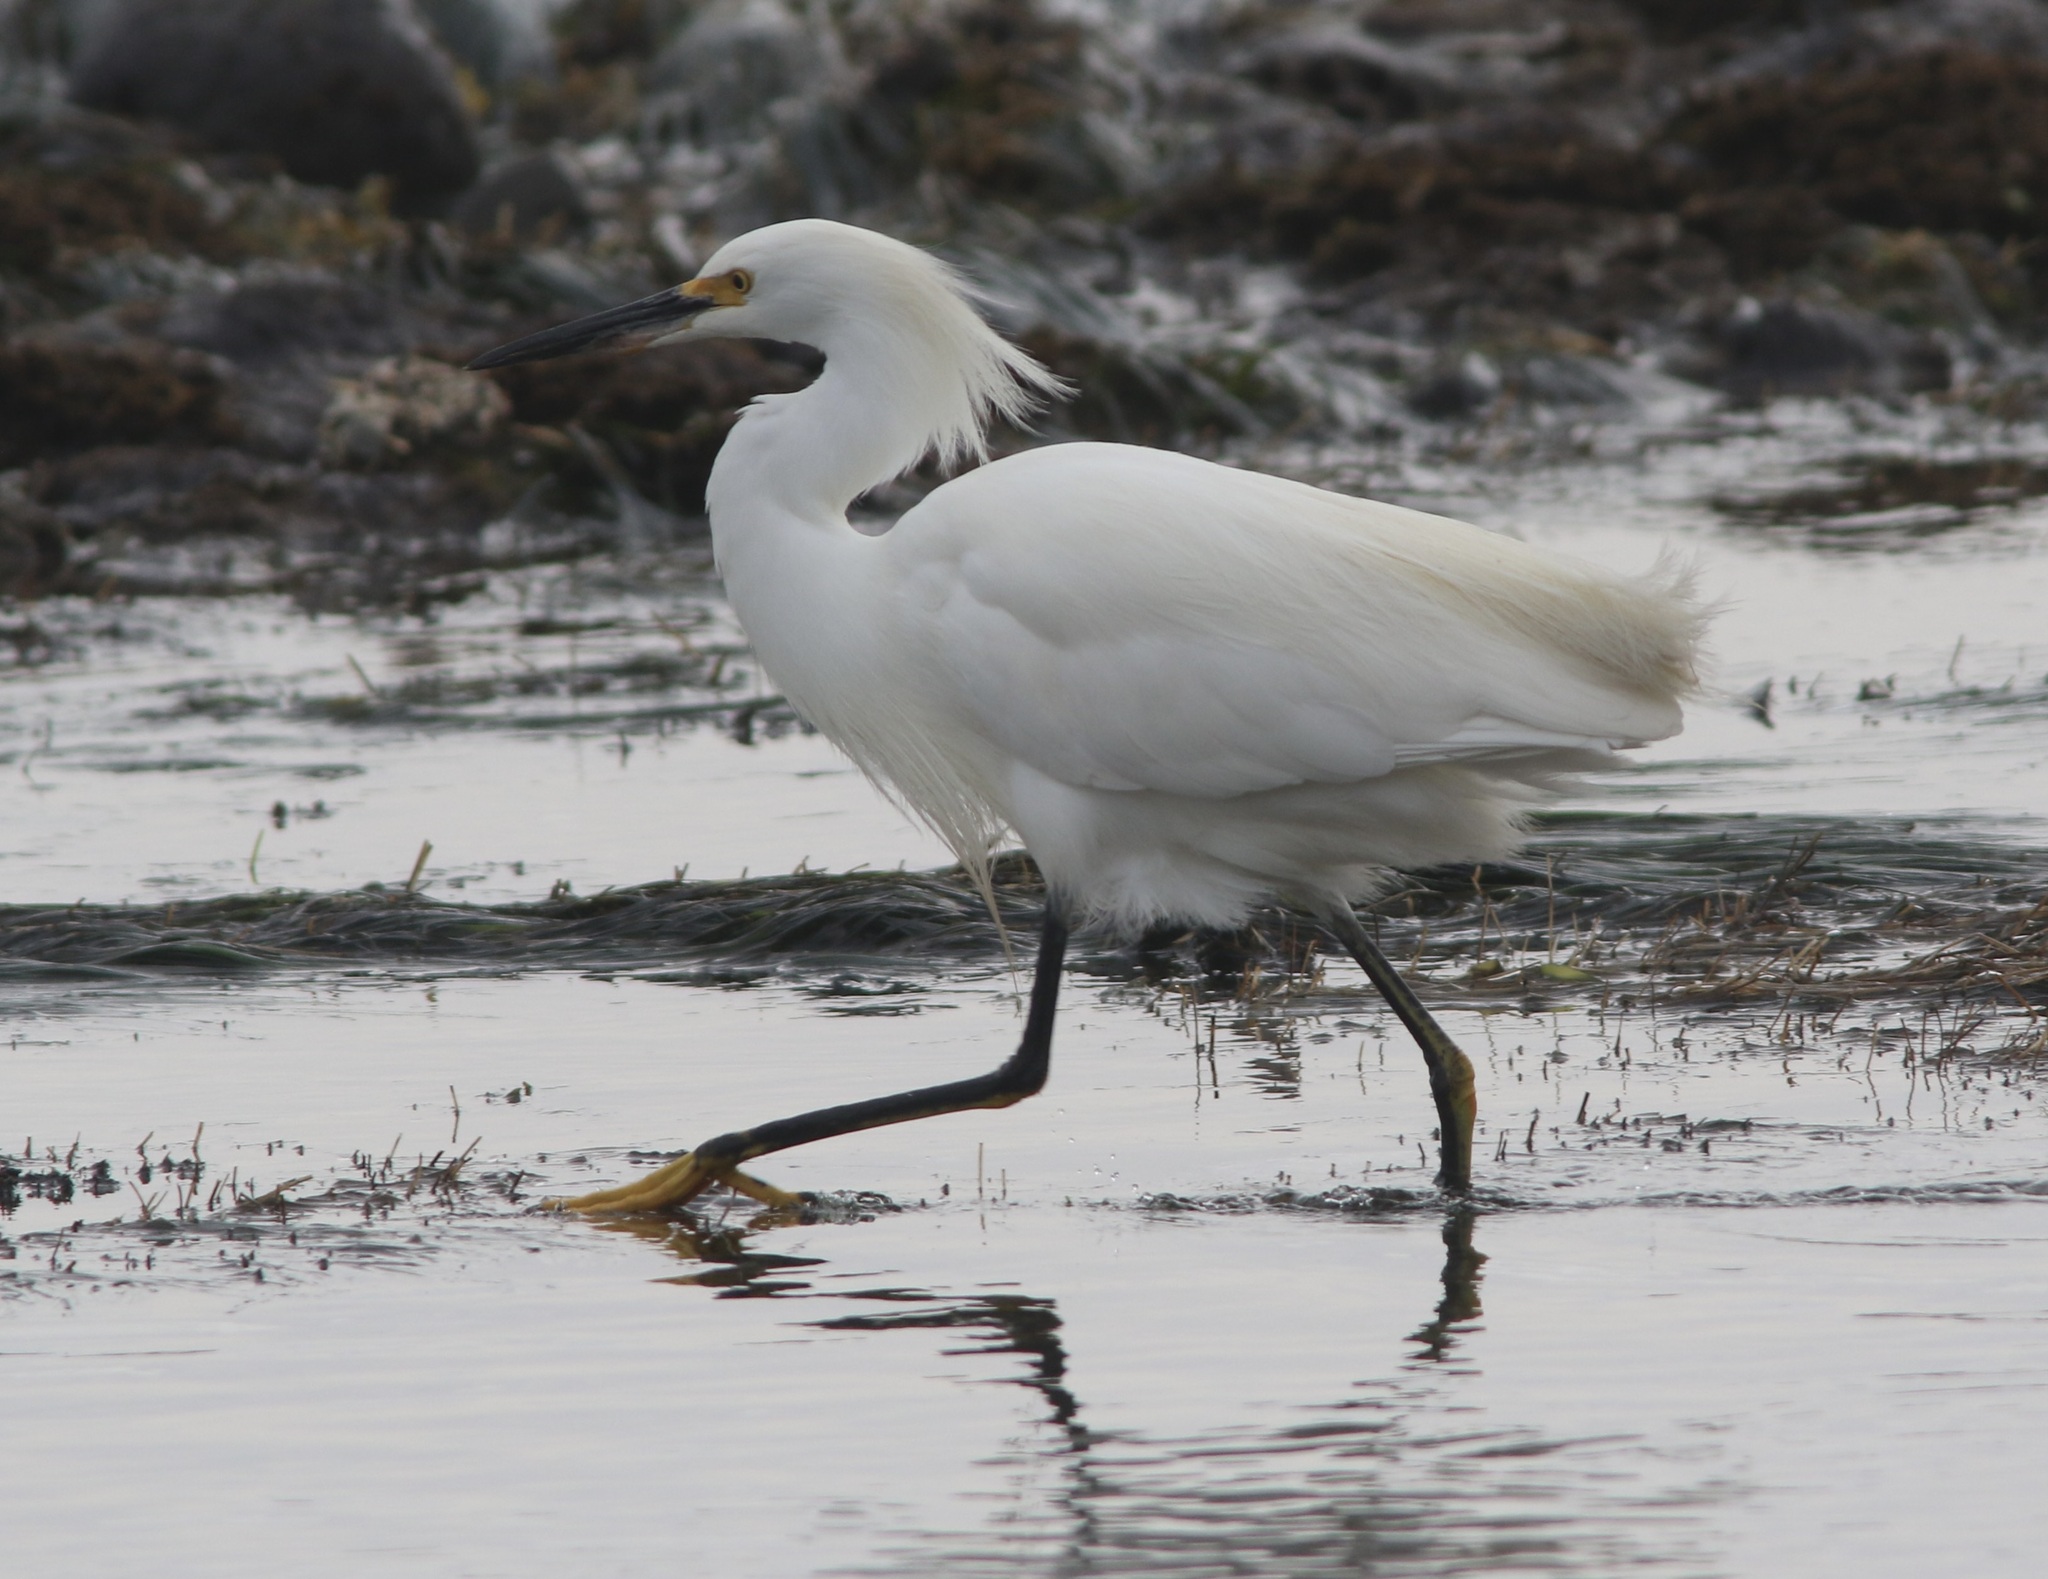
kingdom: Animalia
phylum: Chordata
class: Aves
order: Pelecaniformes
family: Ardeidae
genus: Egretta
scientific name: Egretta thula
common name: Snowy egret
